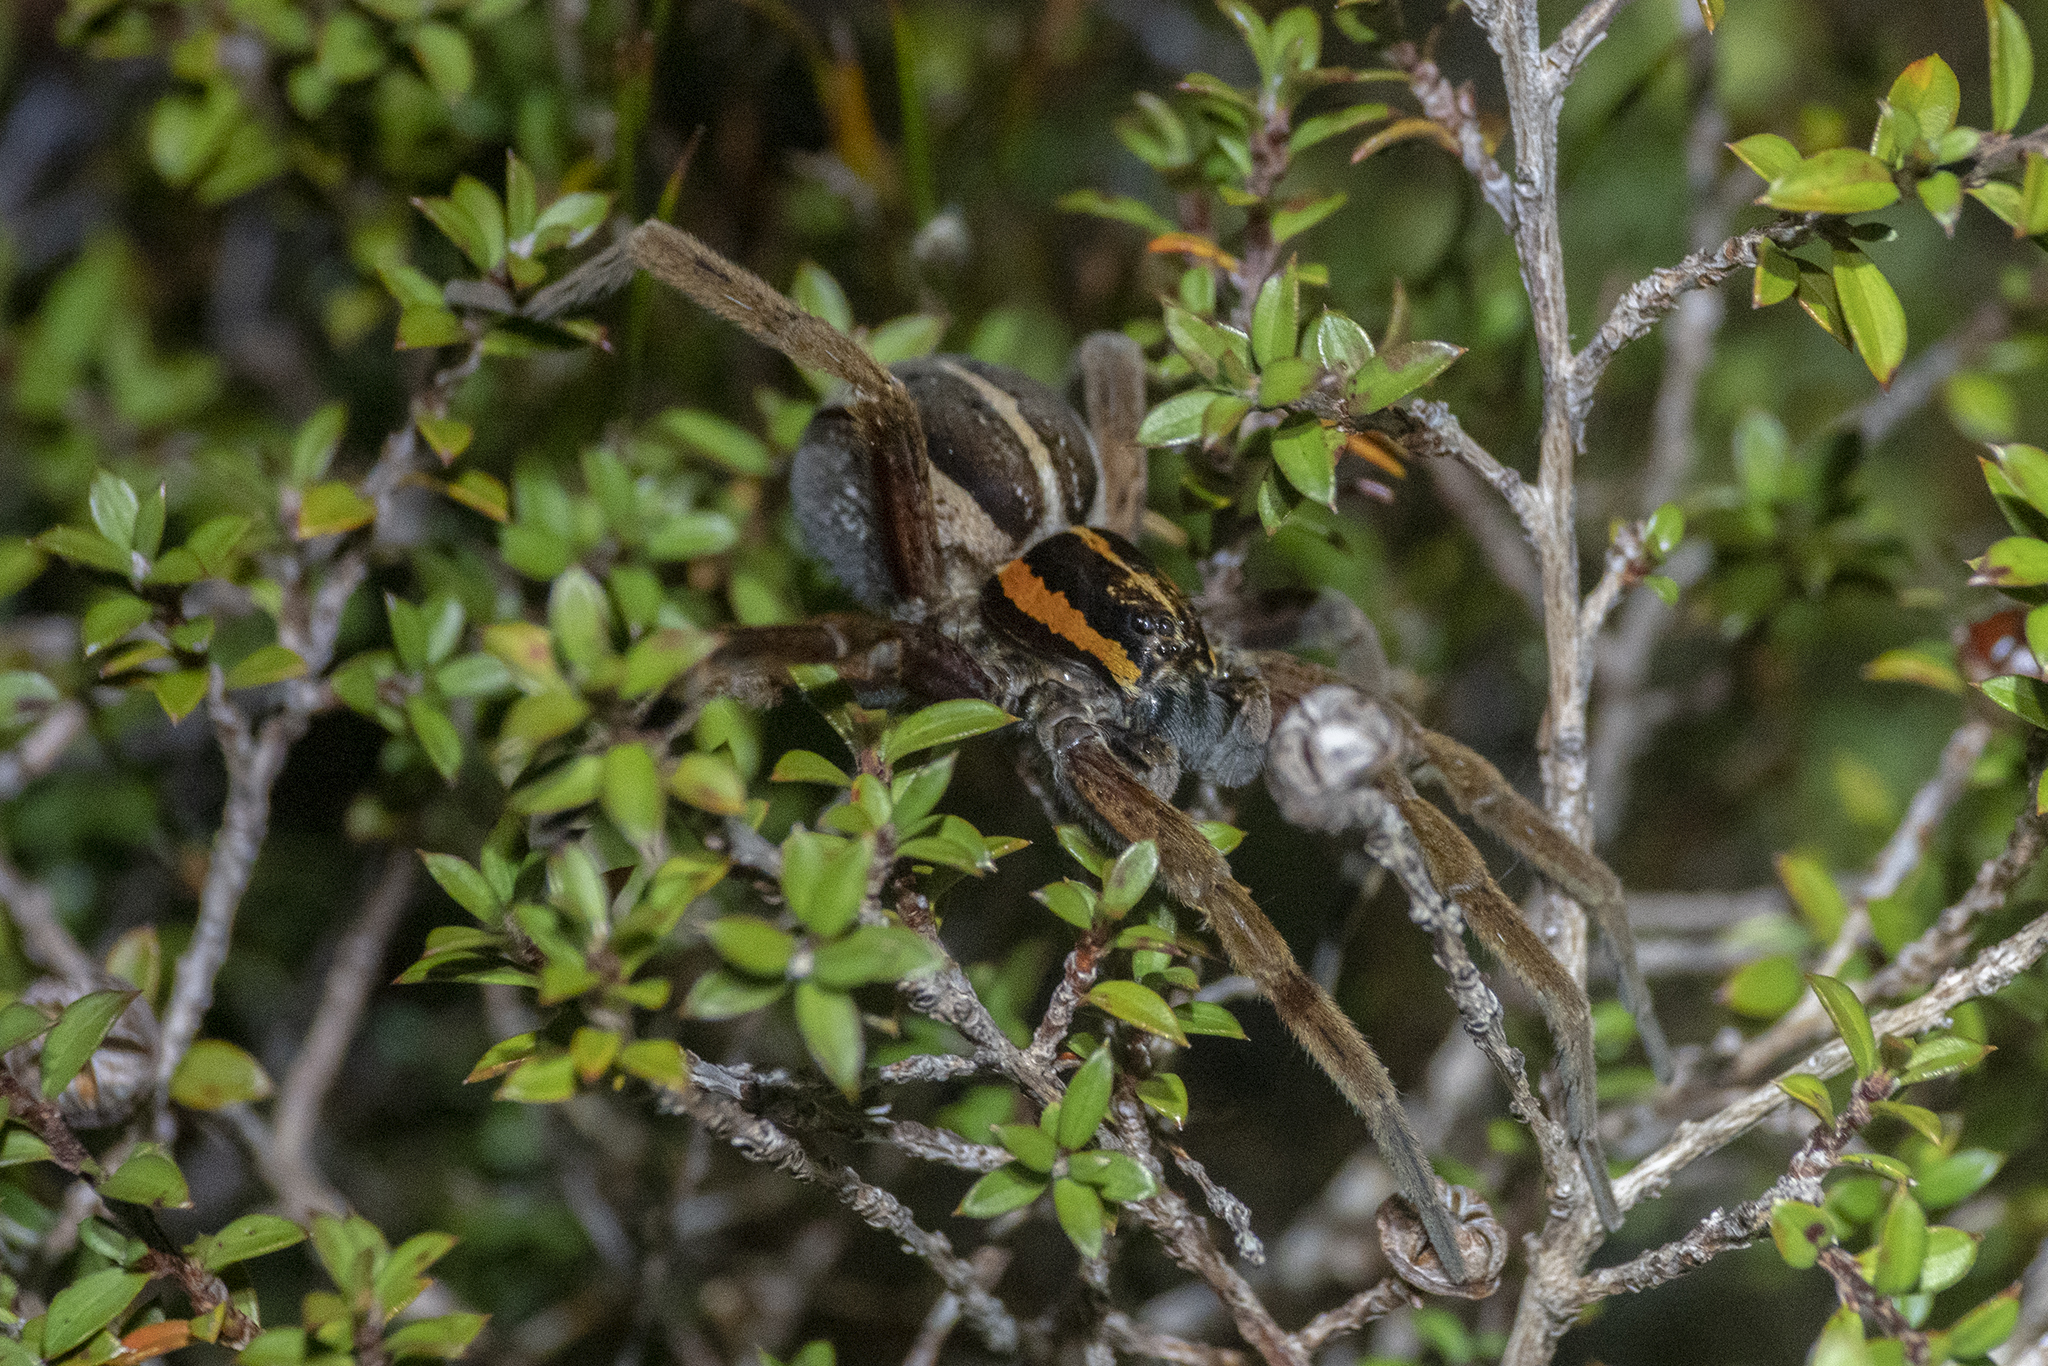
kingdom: Animalia
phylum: Arthropoda
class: Arachnida
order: Araneae
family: Pisauridae
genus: Dolomedes
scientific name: Dolomedes minor
